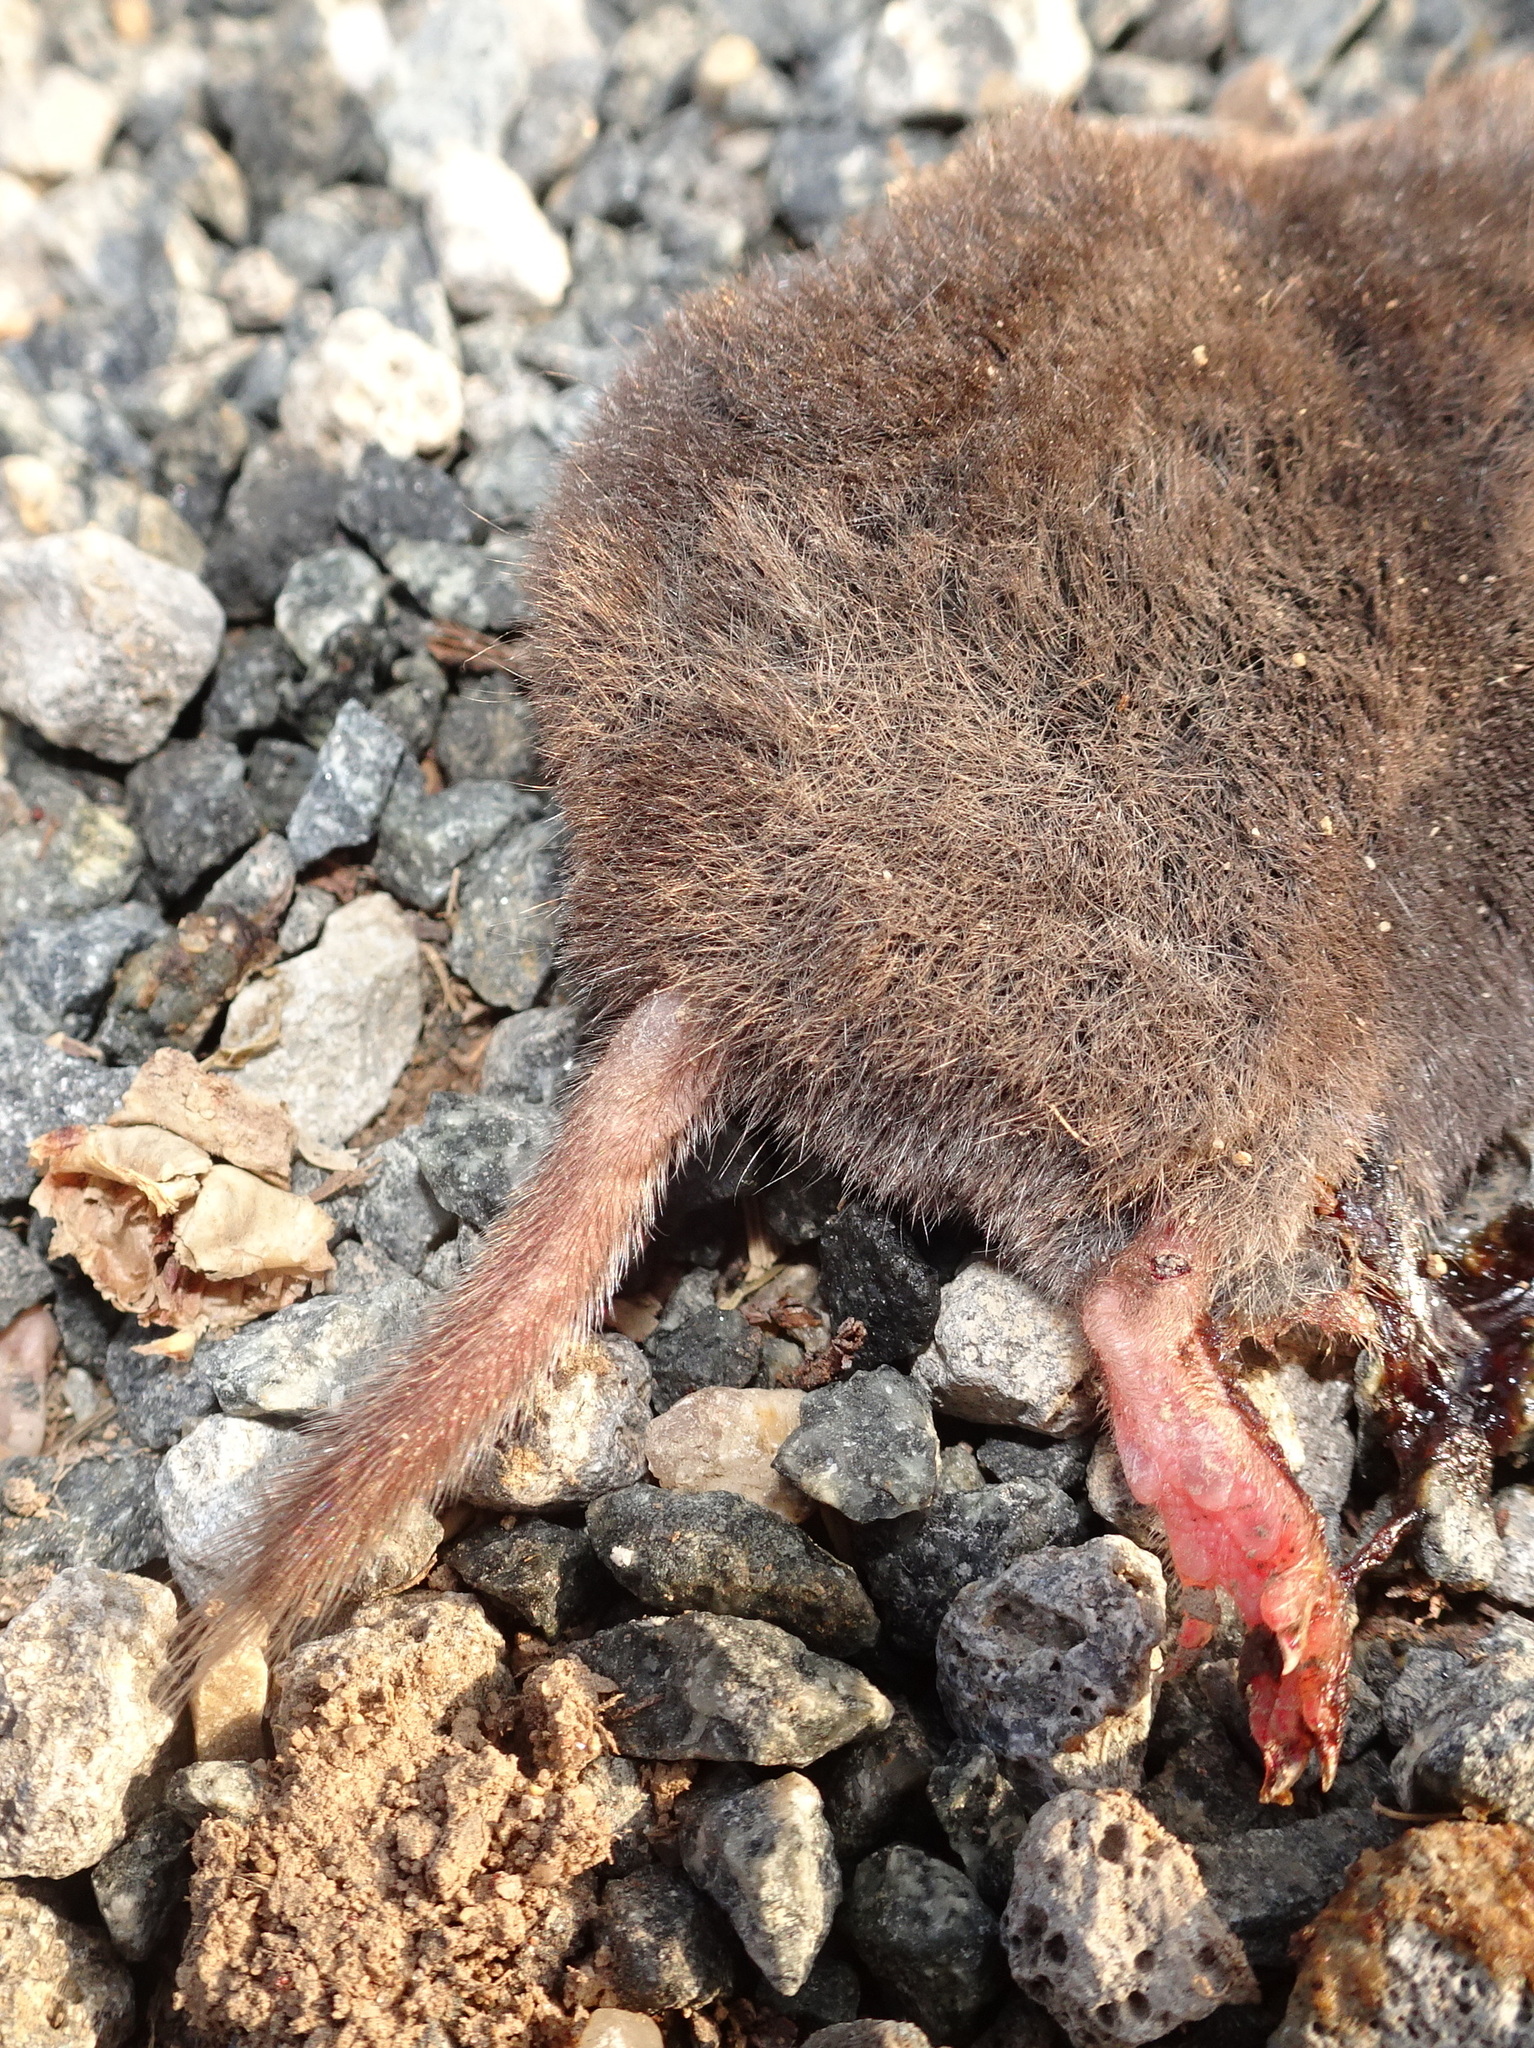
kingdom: Animalia
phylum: Chordata
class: Mammalia
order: Soricomorpha
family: Soricidae
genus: Blarina
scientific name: Blarina brevicauda
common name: Northern short-tailed shrew
